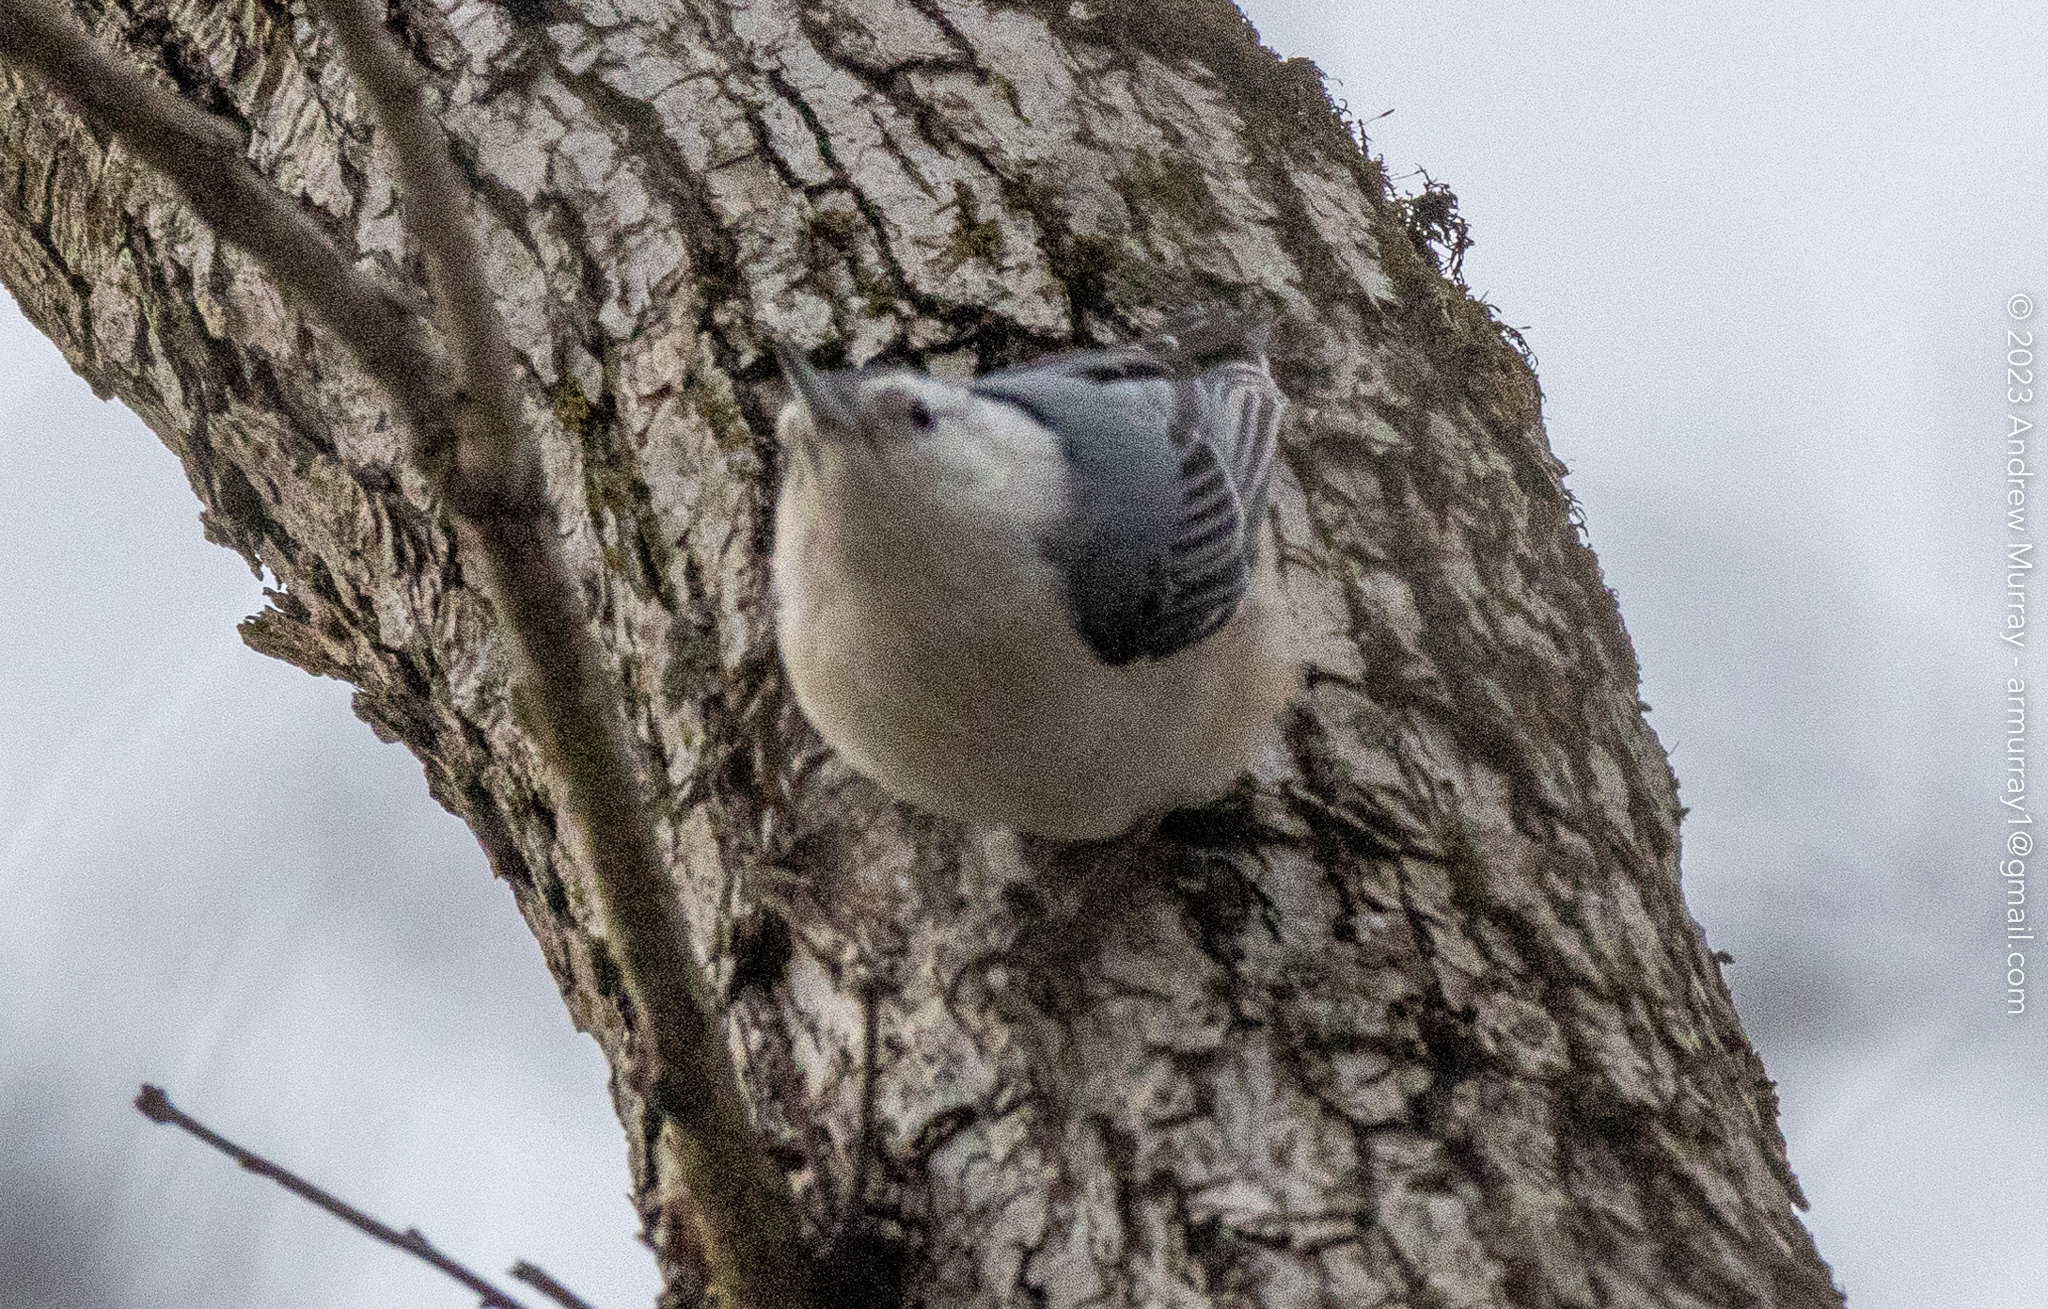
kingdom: Animalia
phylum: Chordata
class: Aves
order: Passeriformes
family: Sittidae
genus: Sitta
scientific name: Sitta carolinensis
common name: White-breasted nuthatch
